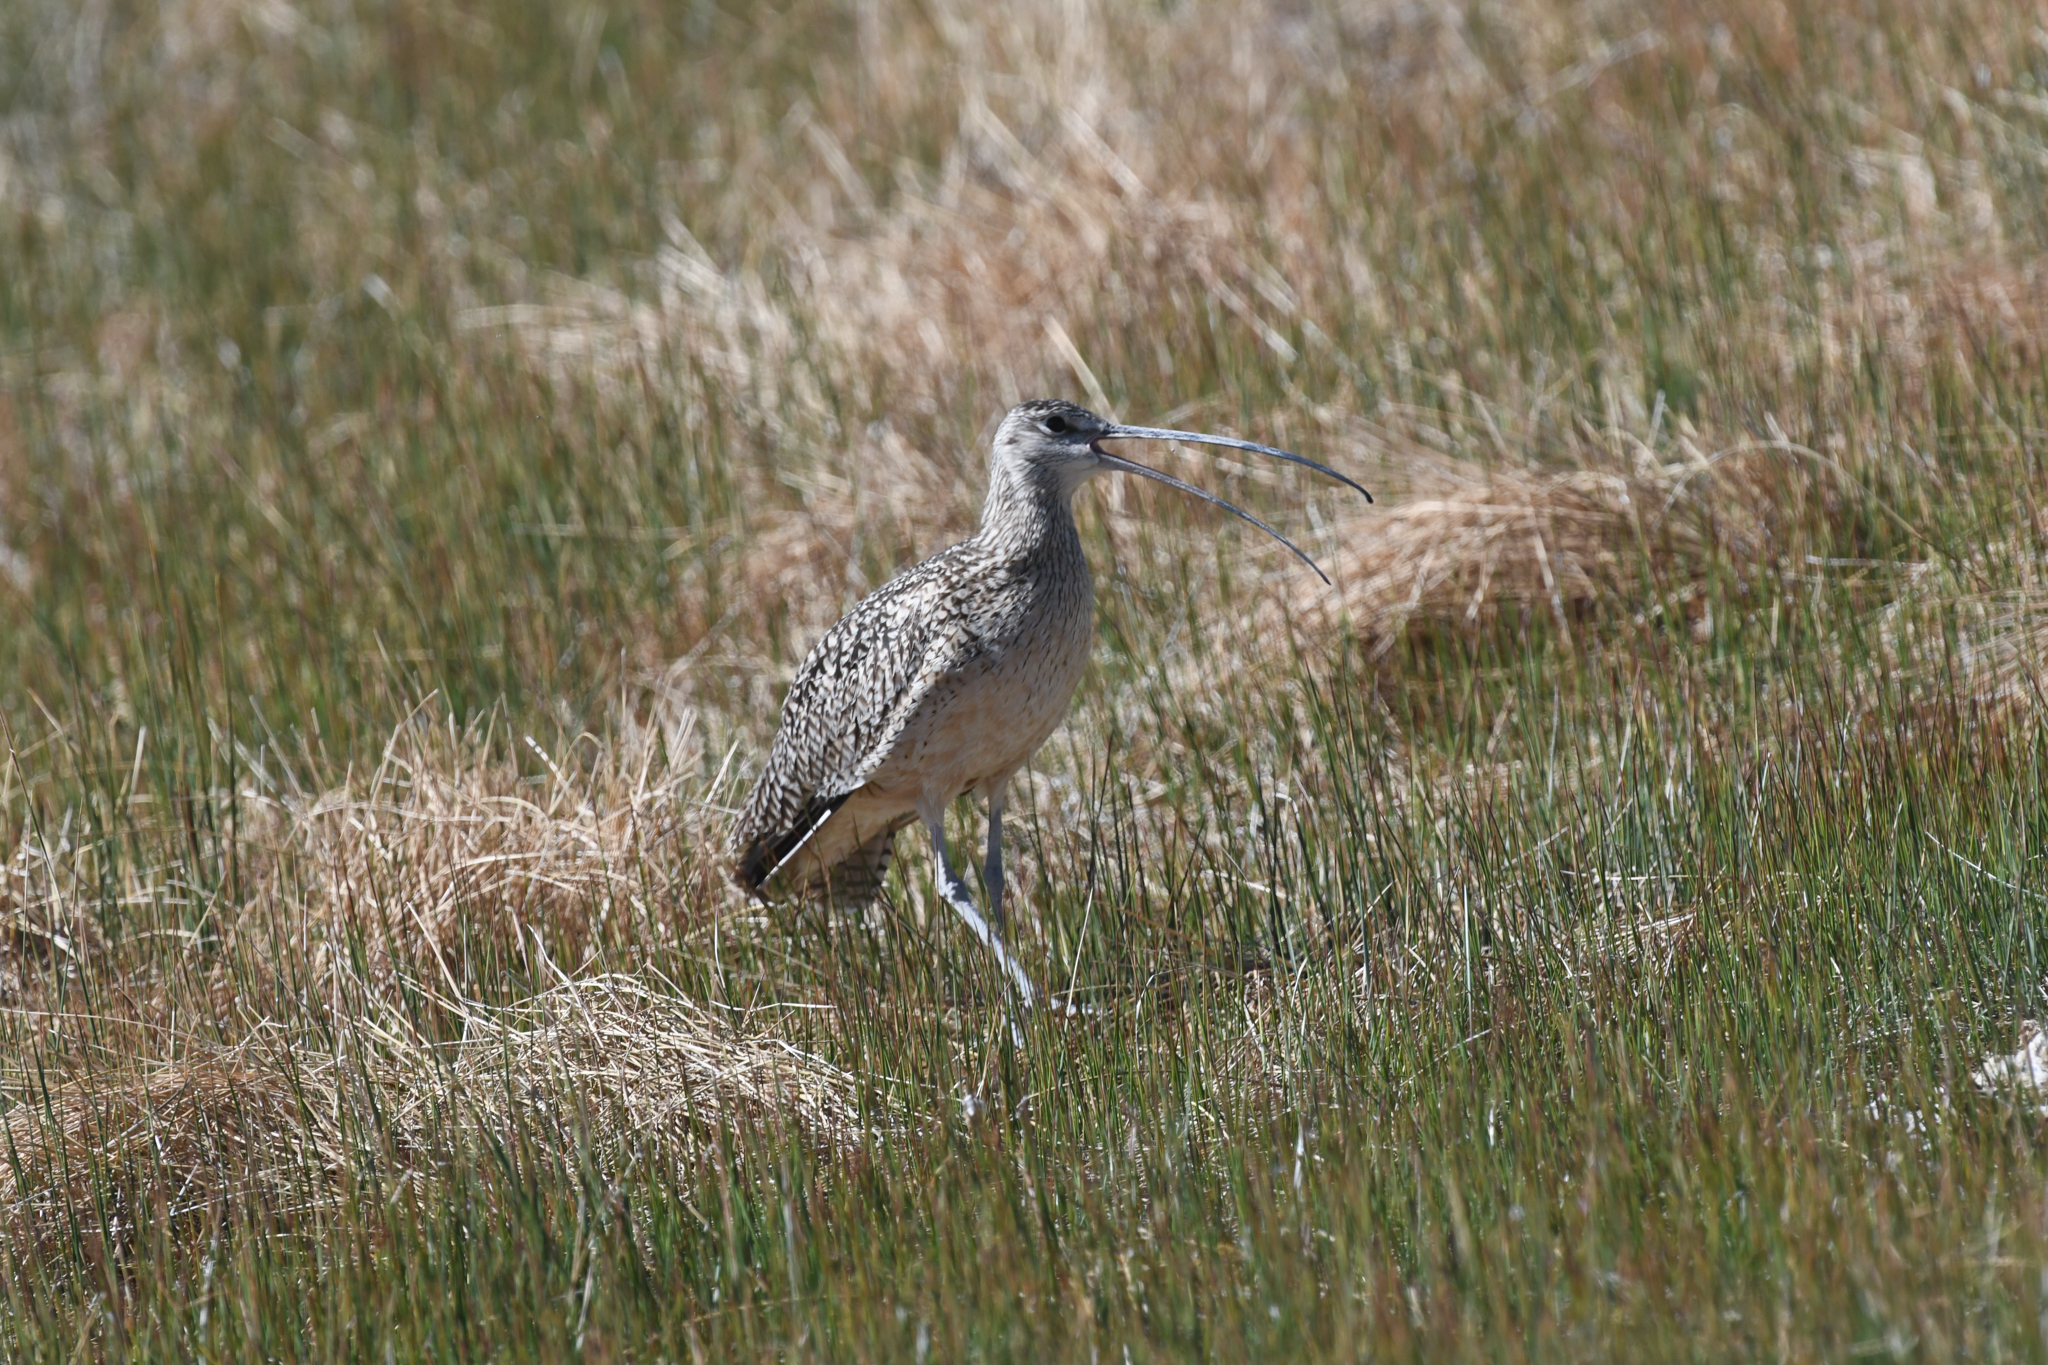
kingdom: Animalia
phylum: Chordata
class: Aves
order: Charadriiformes
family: Scolopacidae
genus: Numenius
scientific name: Numenius americanus
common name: Long-billed curlew
